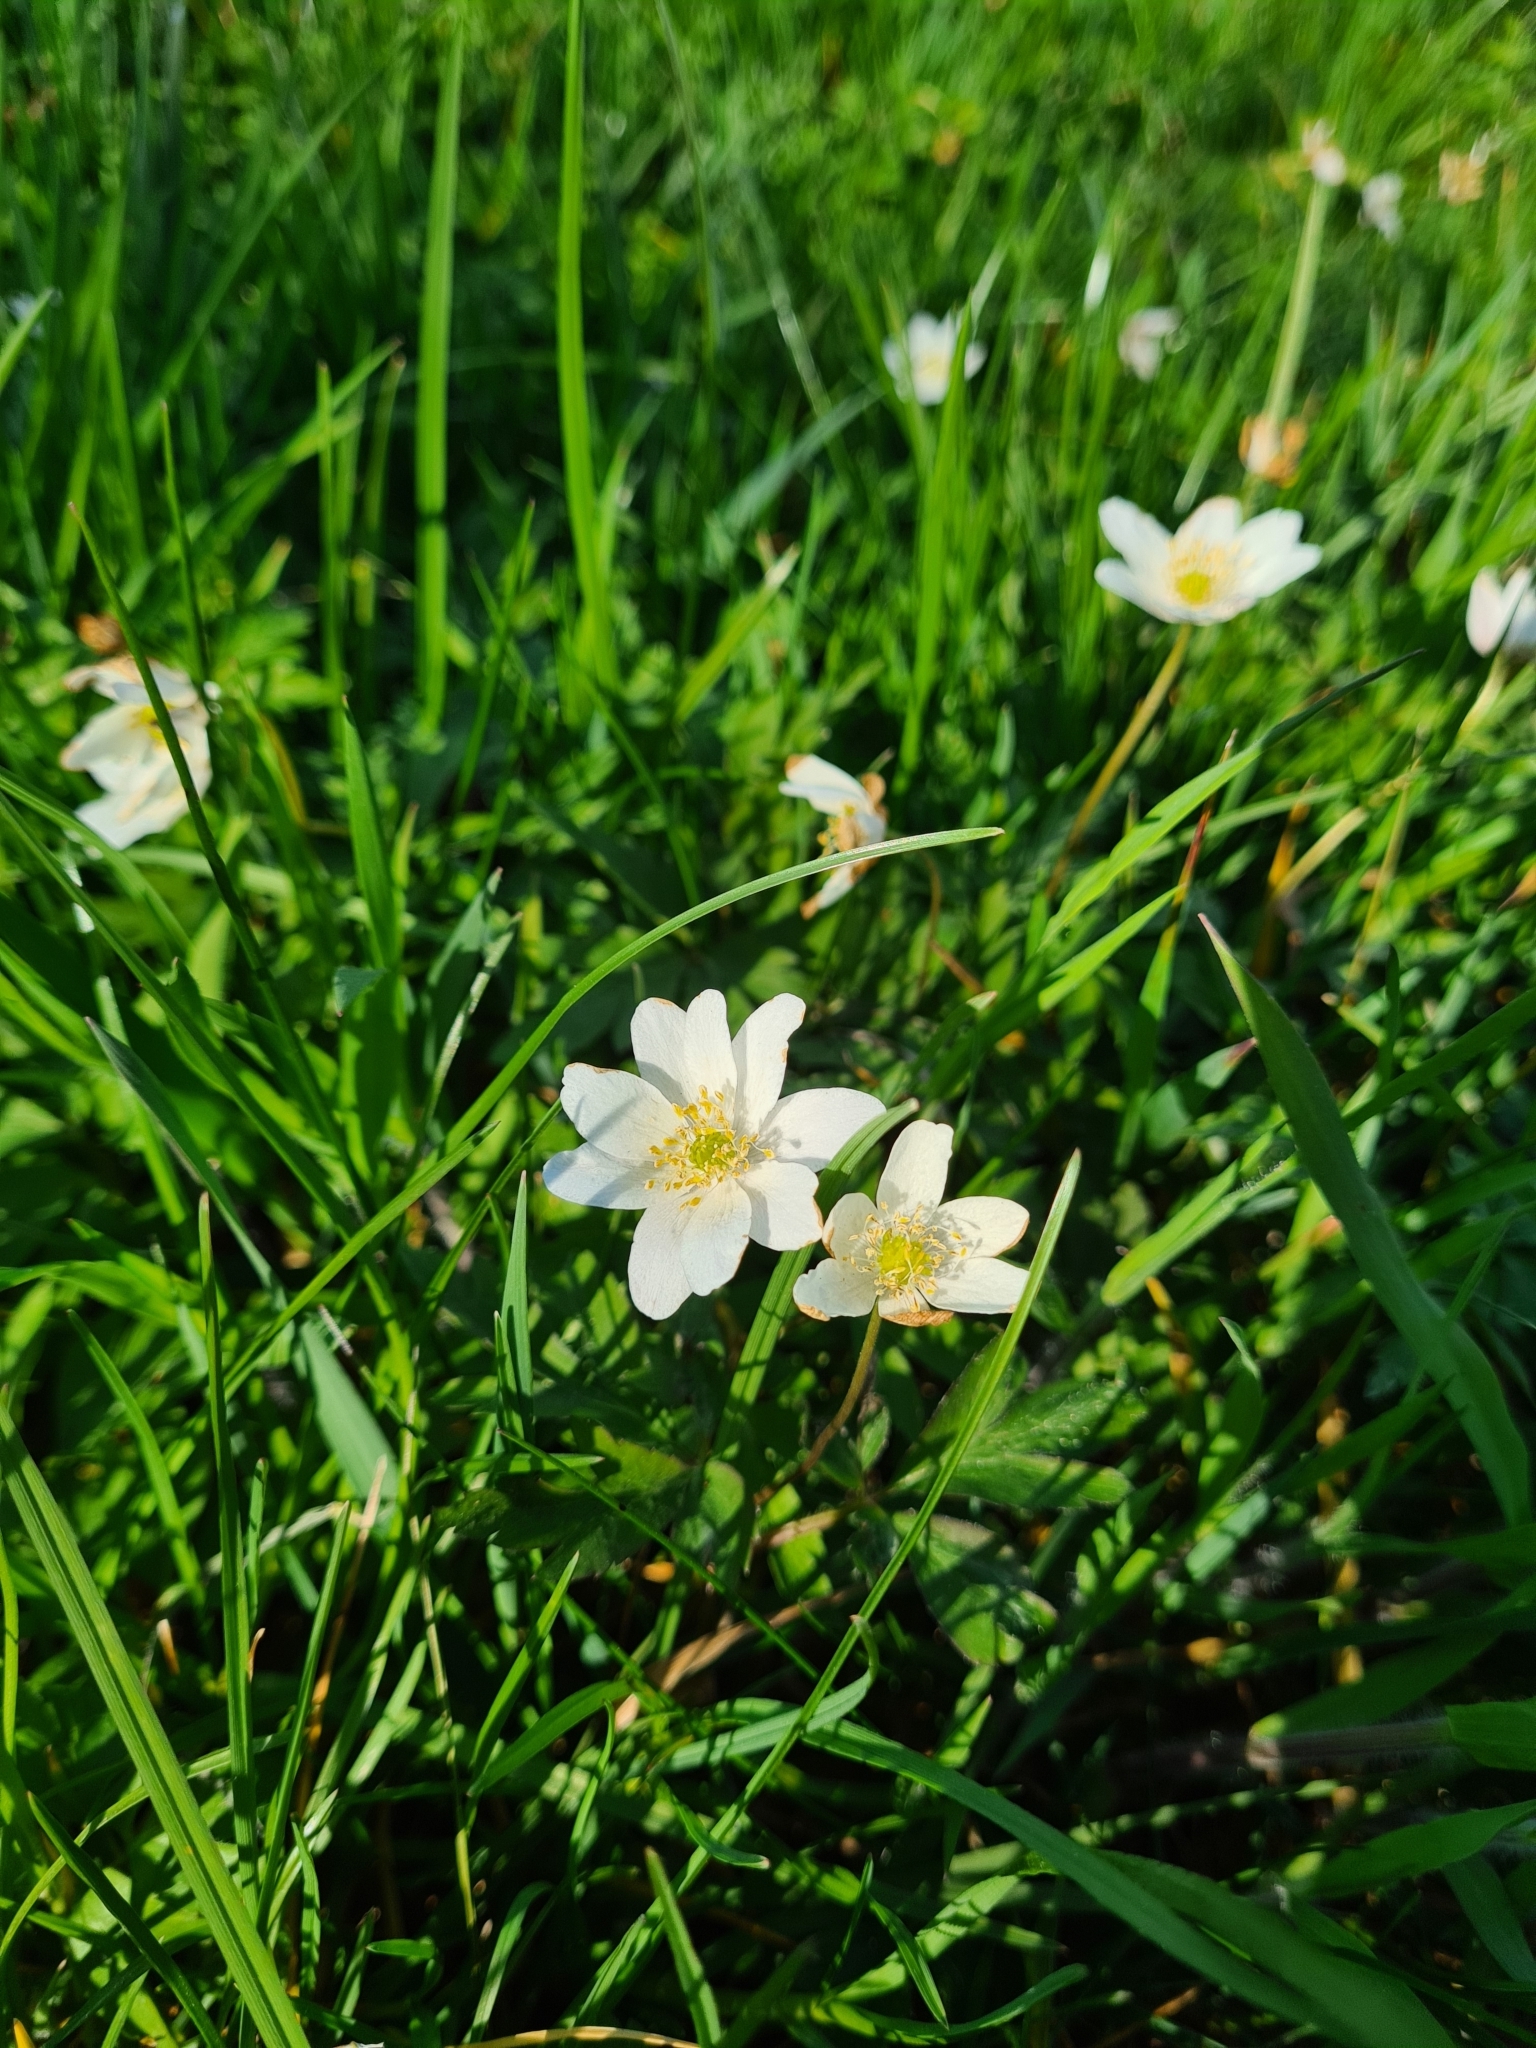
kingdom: Plantae
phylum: Tracheophyta
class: Magnoliopsida
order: Ranunculales
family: Ranunculaceae
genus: Anemone
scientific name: Anemone nemorosa
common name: Wood anemone
